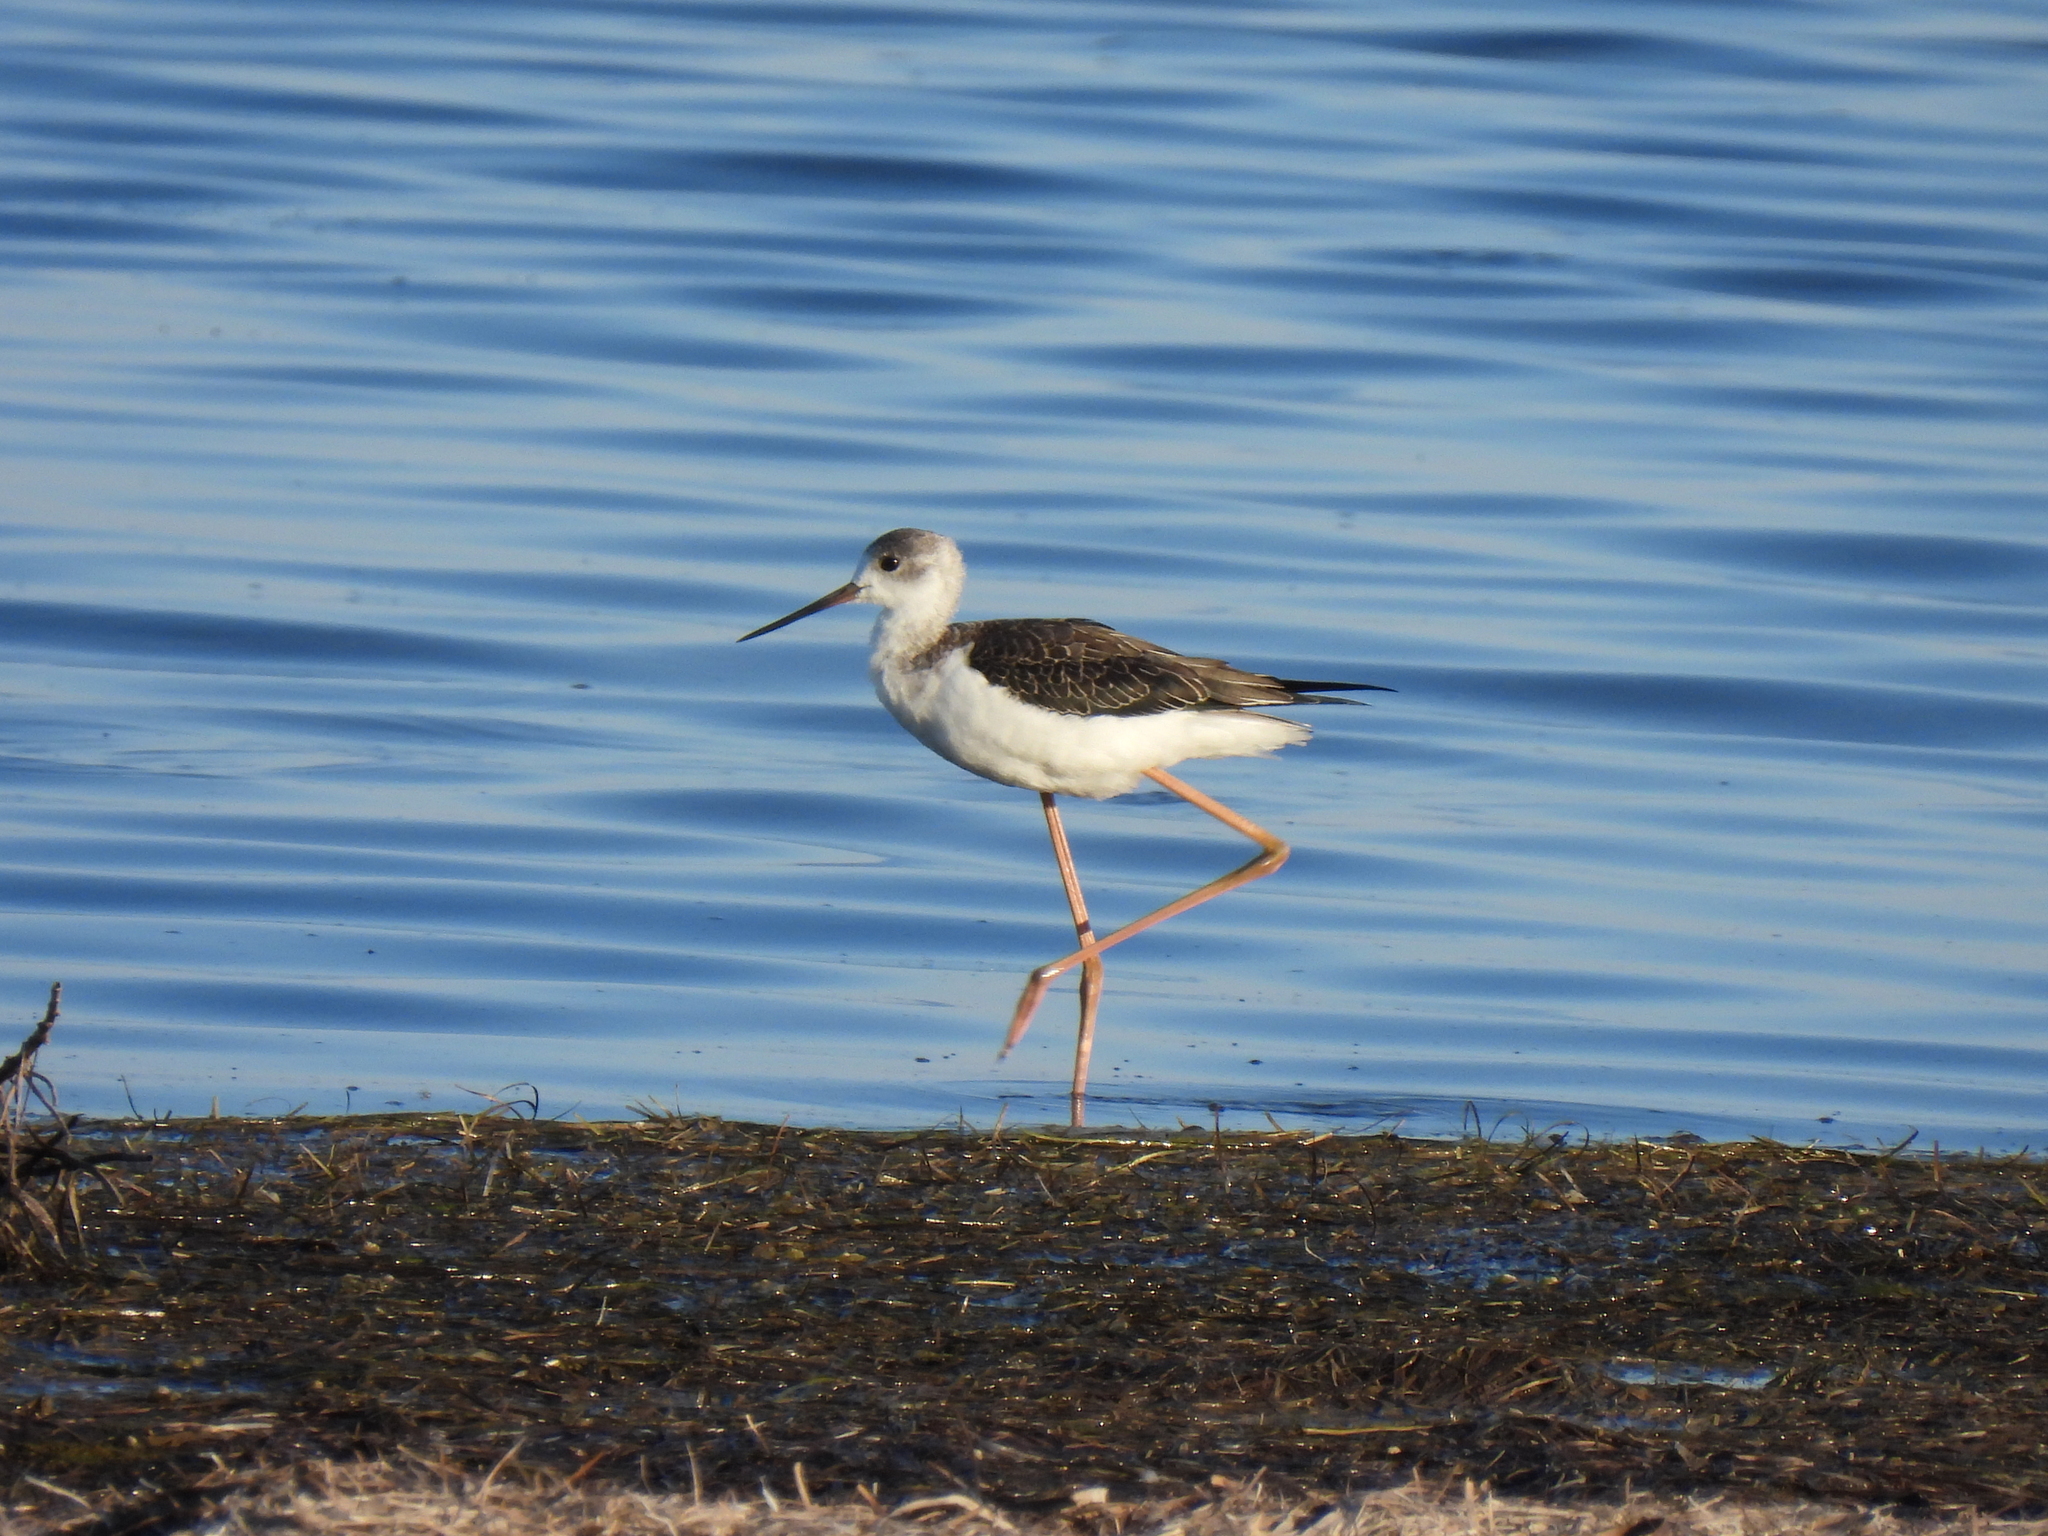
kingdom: Animalia
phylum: Chordata
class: Aves
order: Charadriiformes
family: Recurvirostridae
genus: Himantopus
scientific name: Himantopus himantopus
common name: Black-winged stilt
